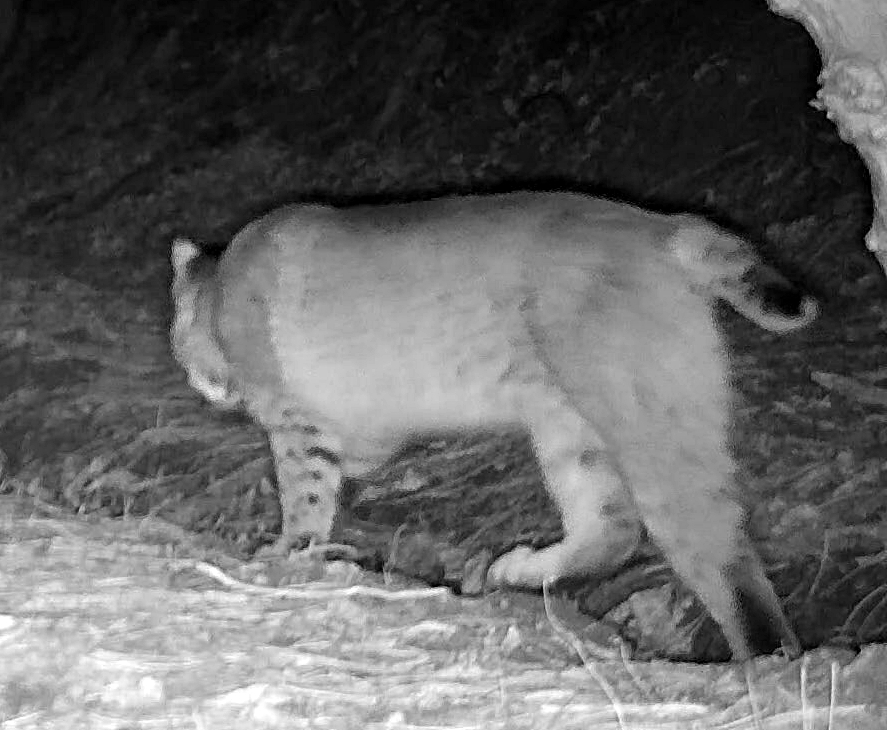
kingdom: Animalia
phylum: Chordata
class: Mammalia
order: Carnivora
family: Felidae
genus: Lynx
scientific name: Lynx rufus
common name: Bobcat
